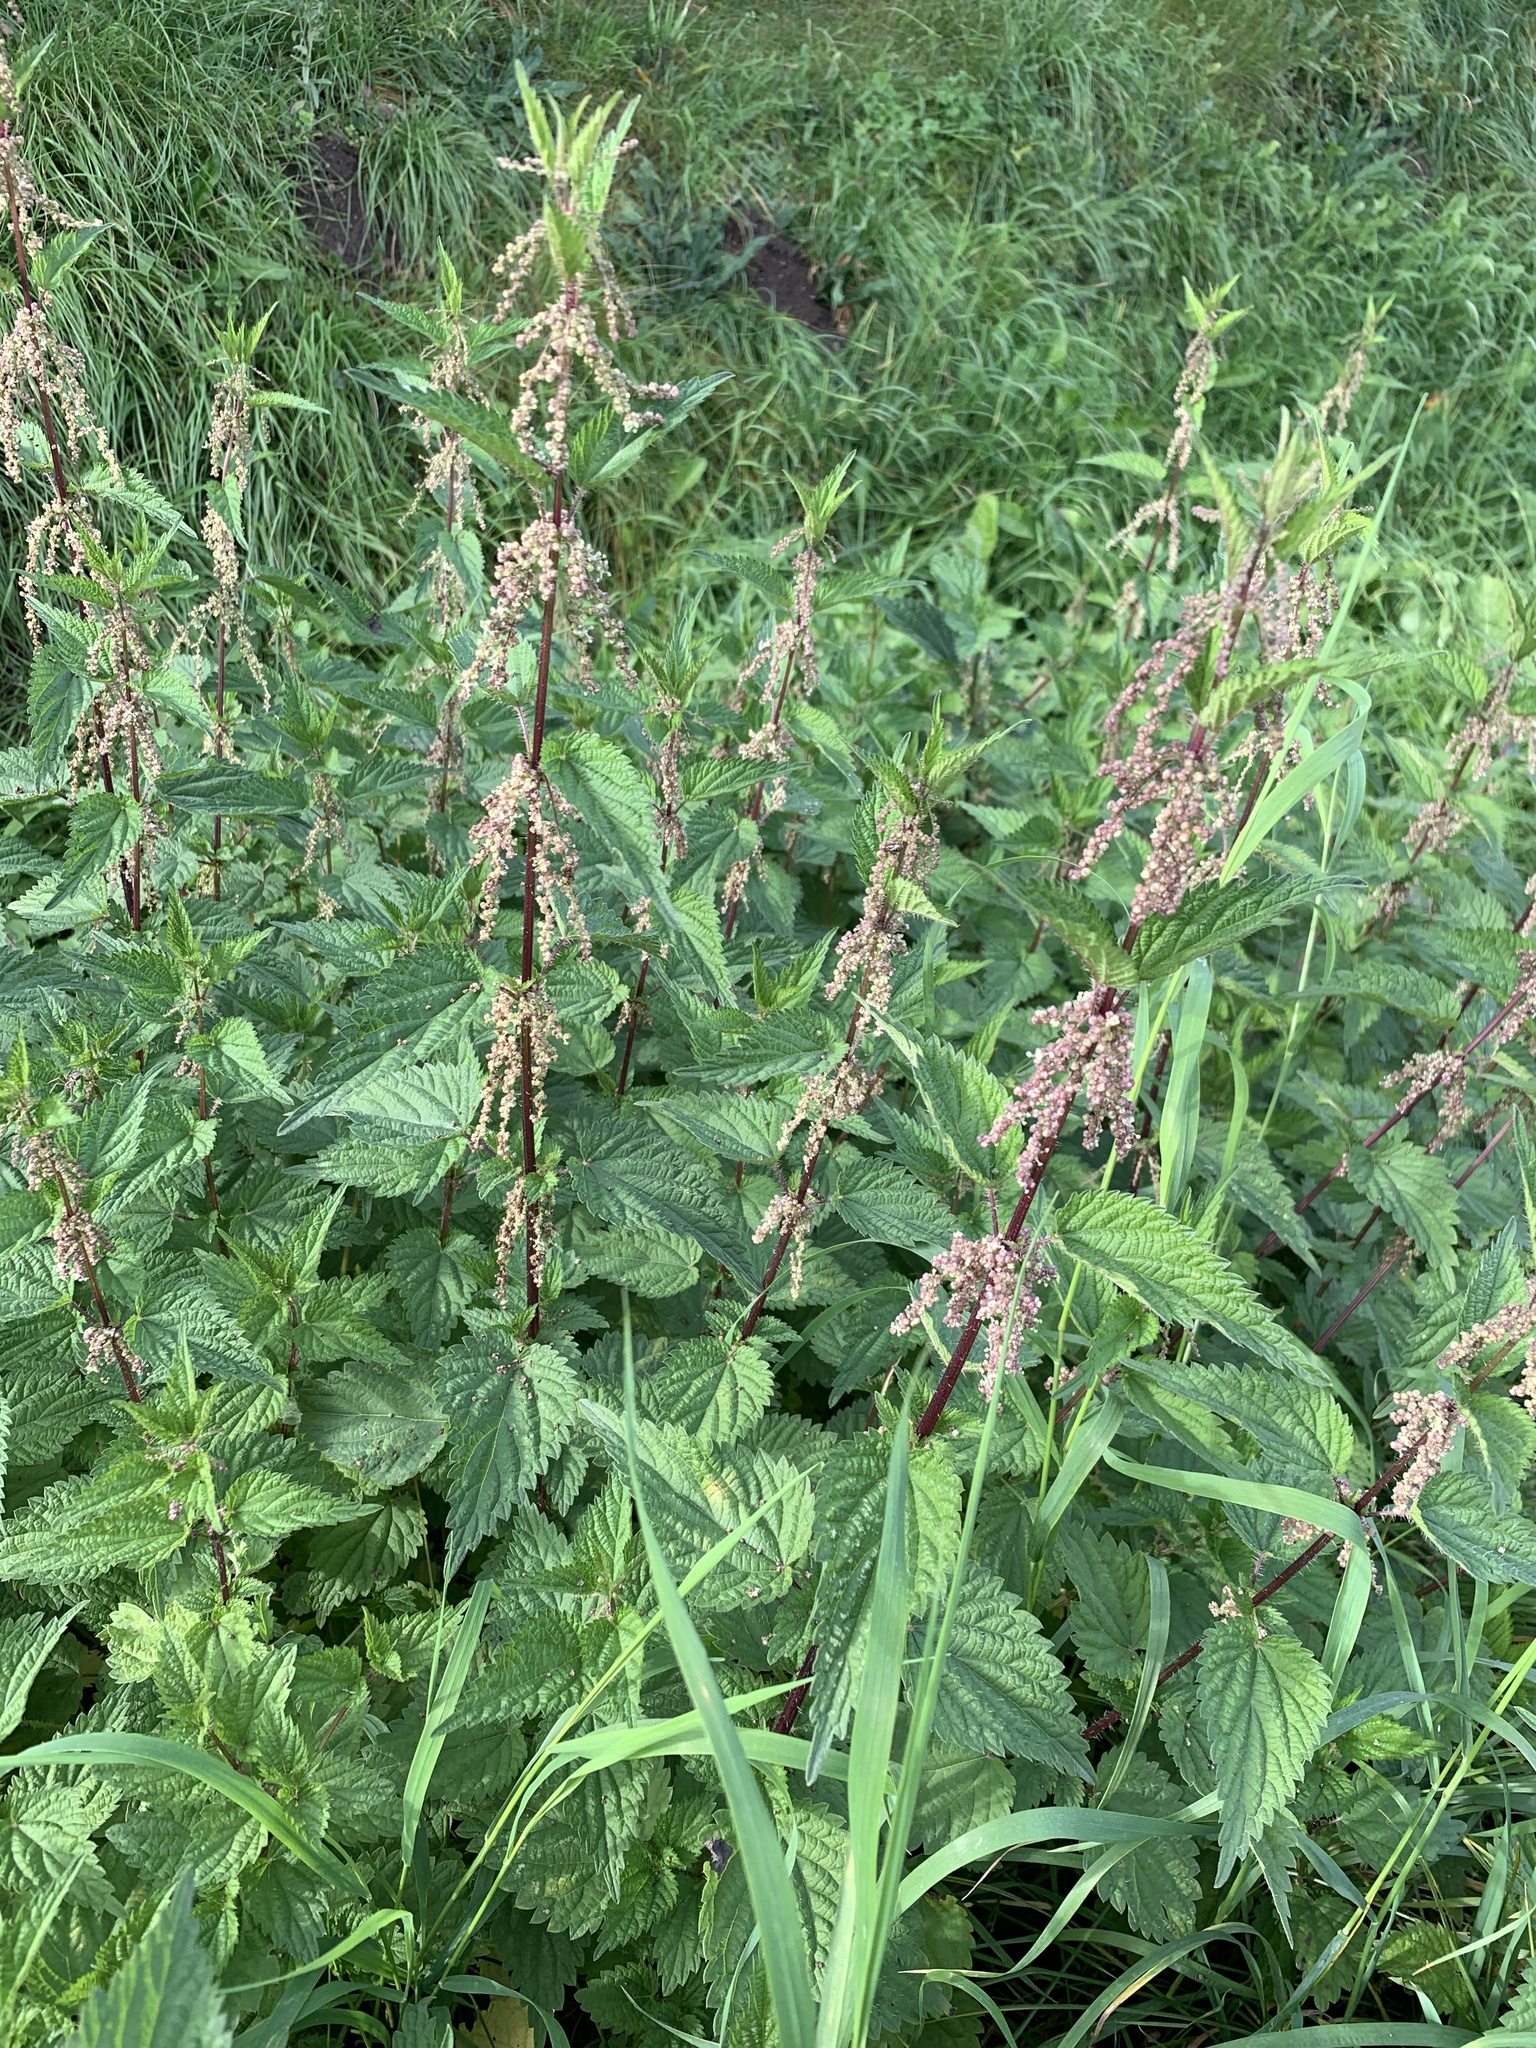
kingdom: Plantae
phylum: Tracheophyta
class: Magnoliopsida
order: Rosales
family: Urticaceae
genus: Urtica
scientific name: Urtica dioica
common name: Common nettle
